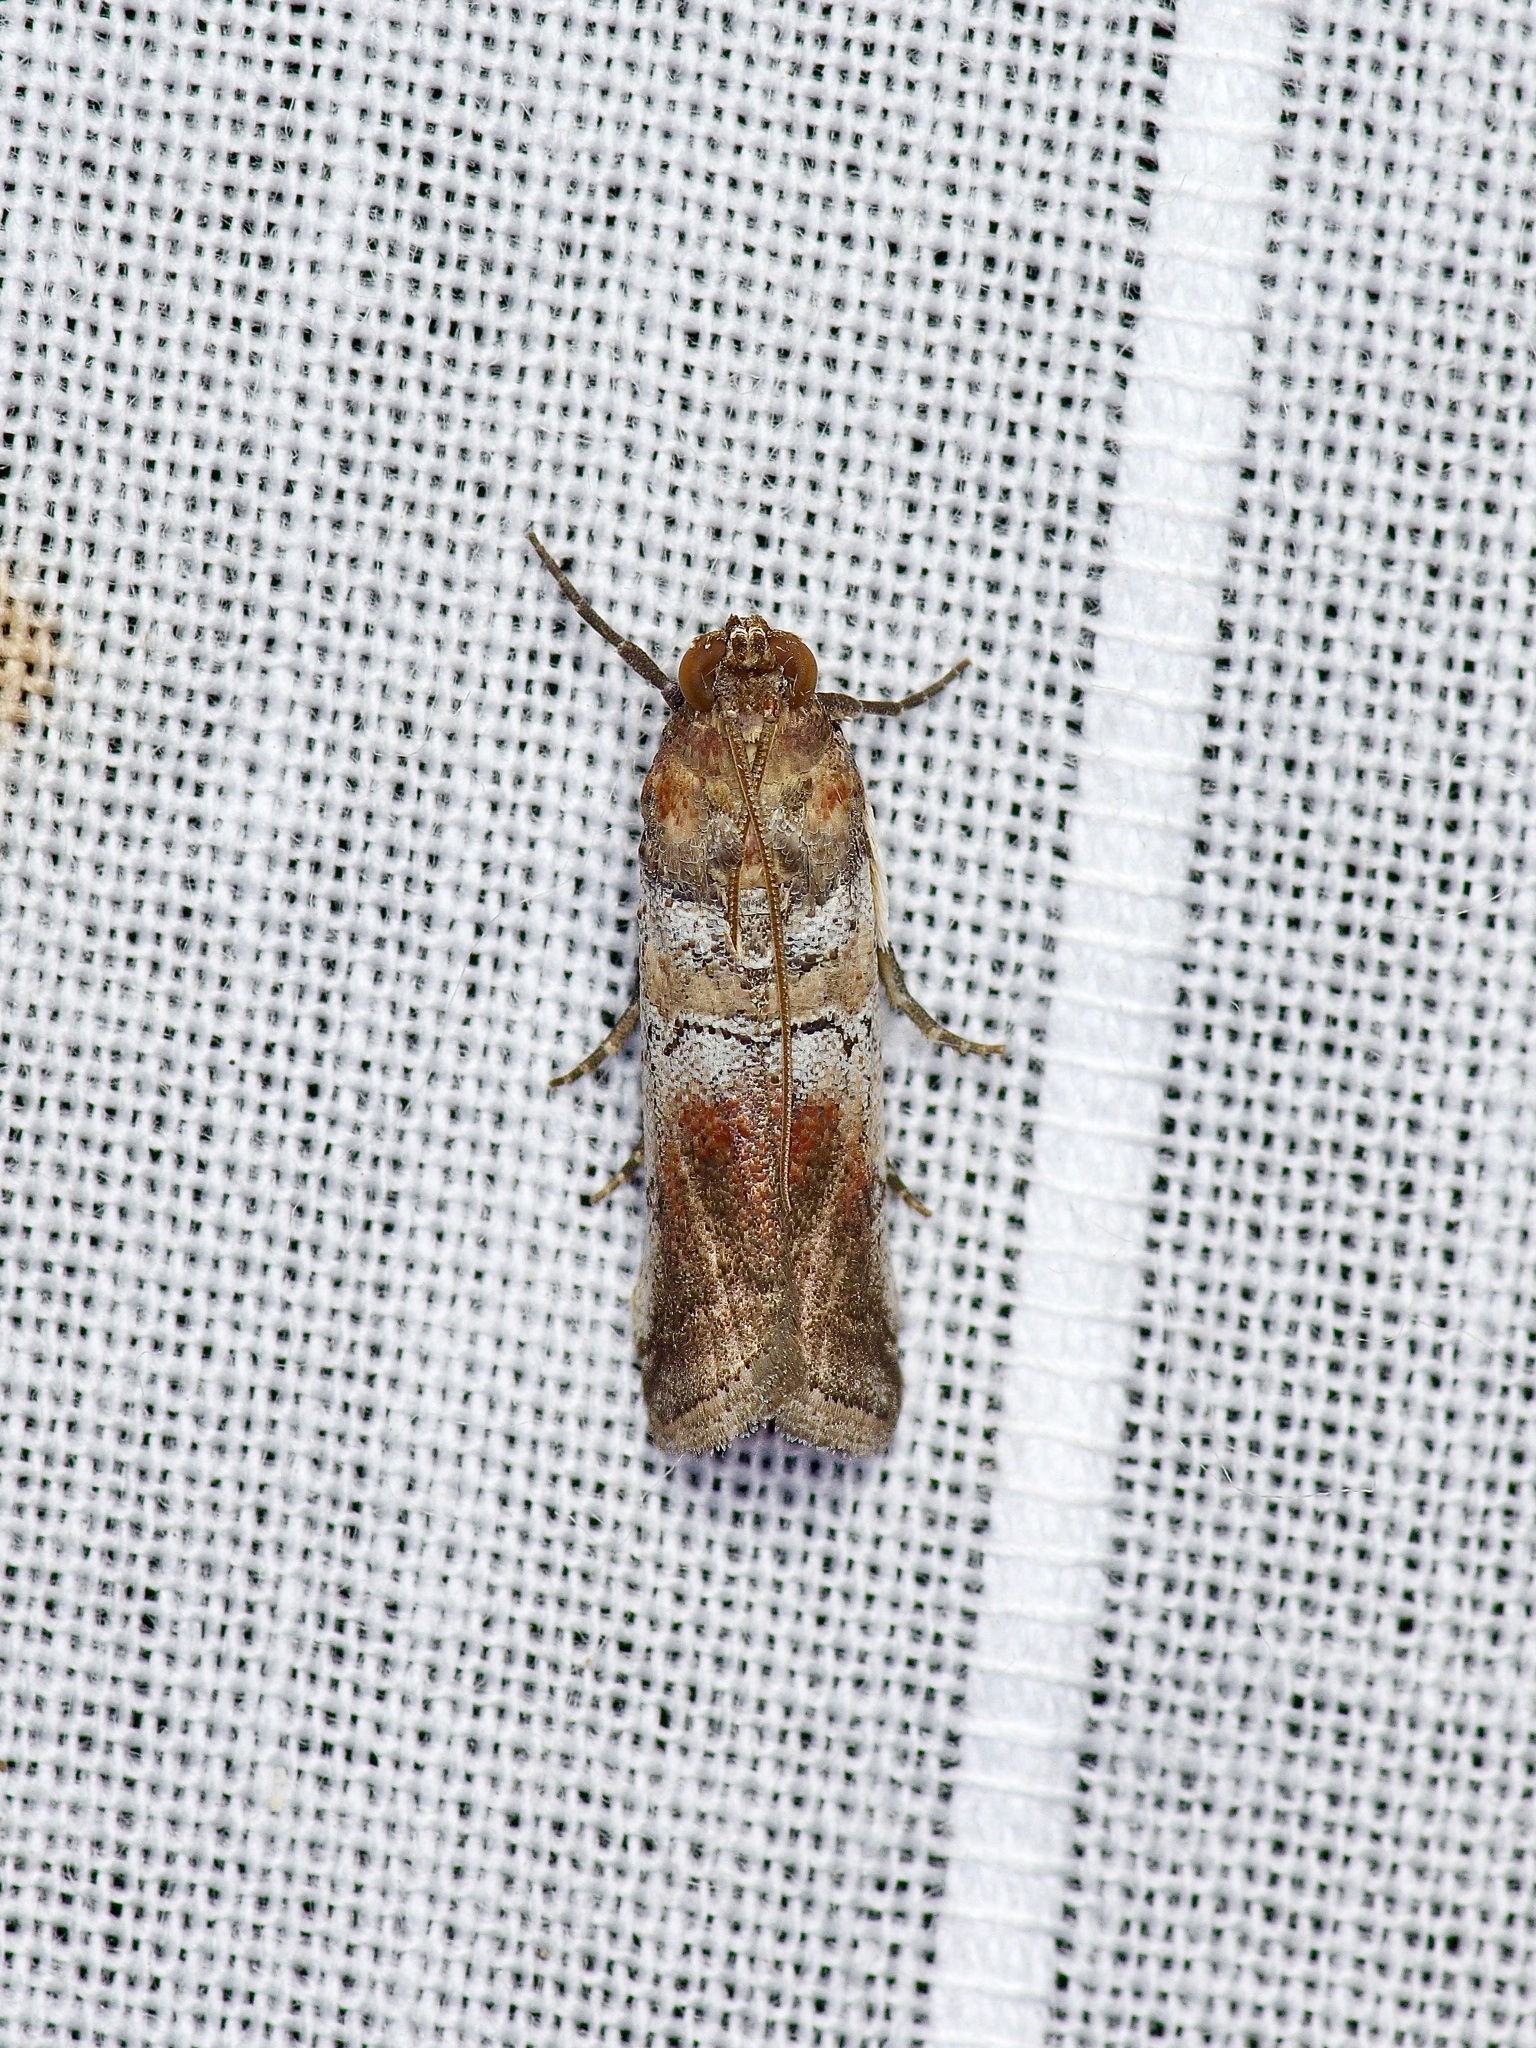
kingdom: Animalia
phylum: Arthropoda
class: Insecta
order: Lepidoptera
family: Pyralidae
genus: Chararica
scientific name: Chararica hystriculella
